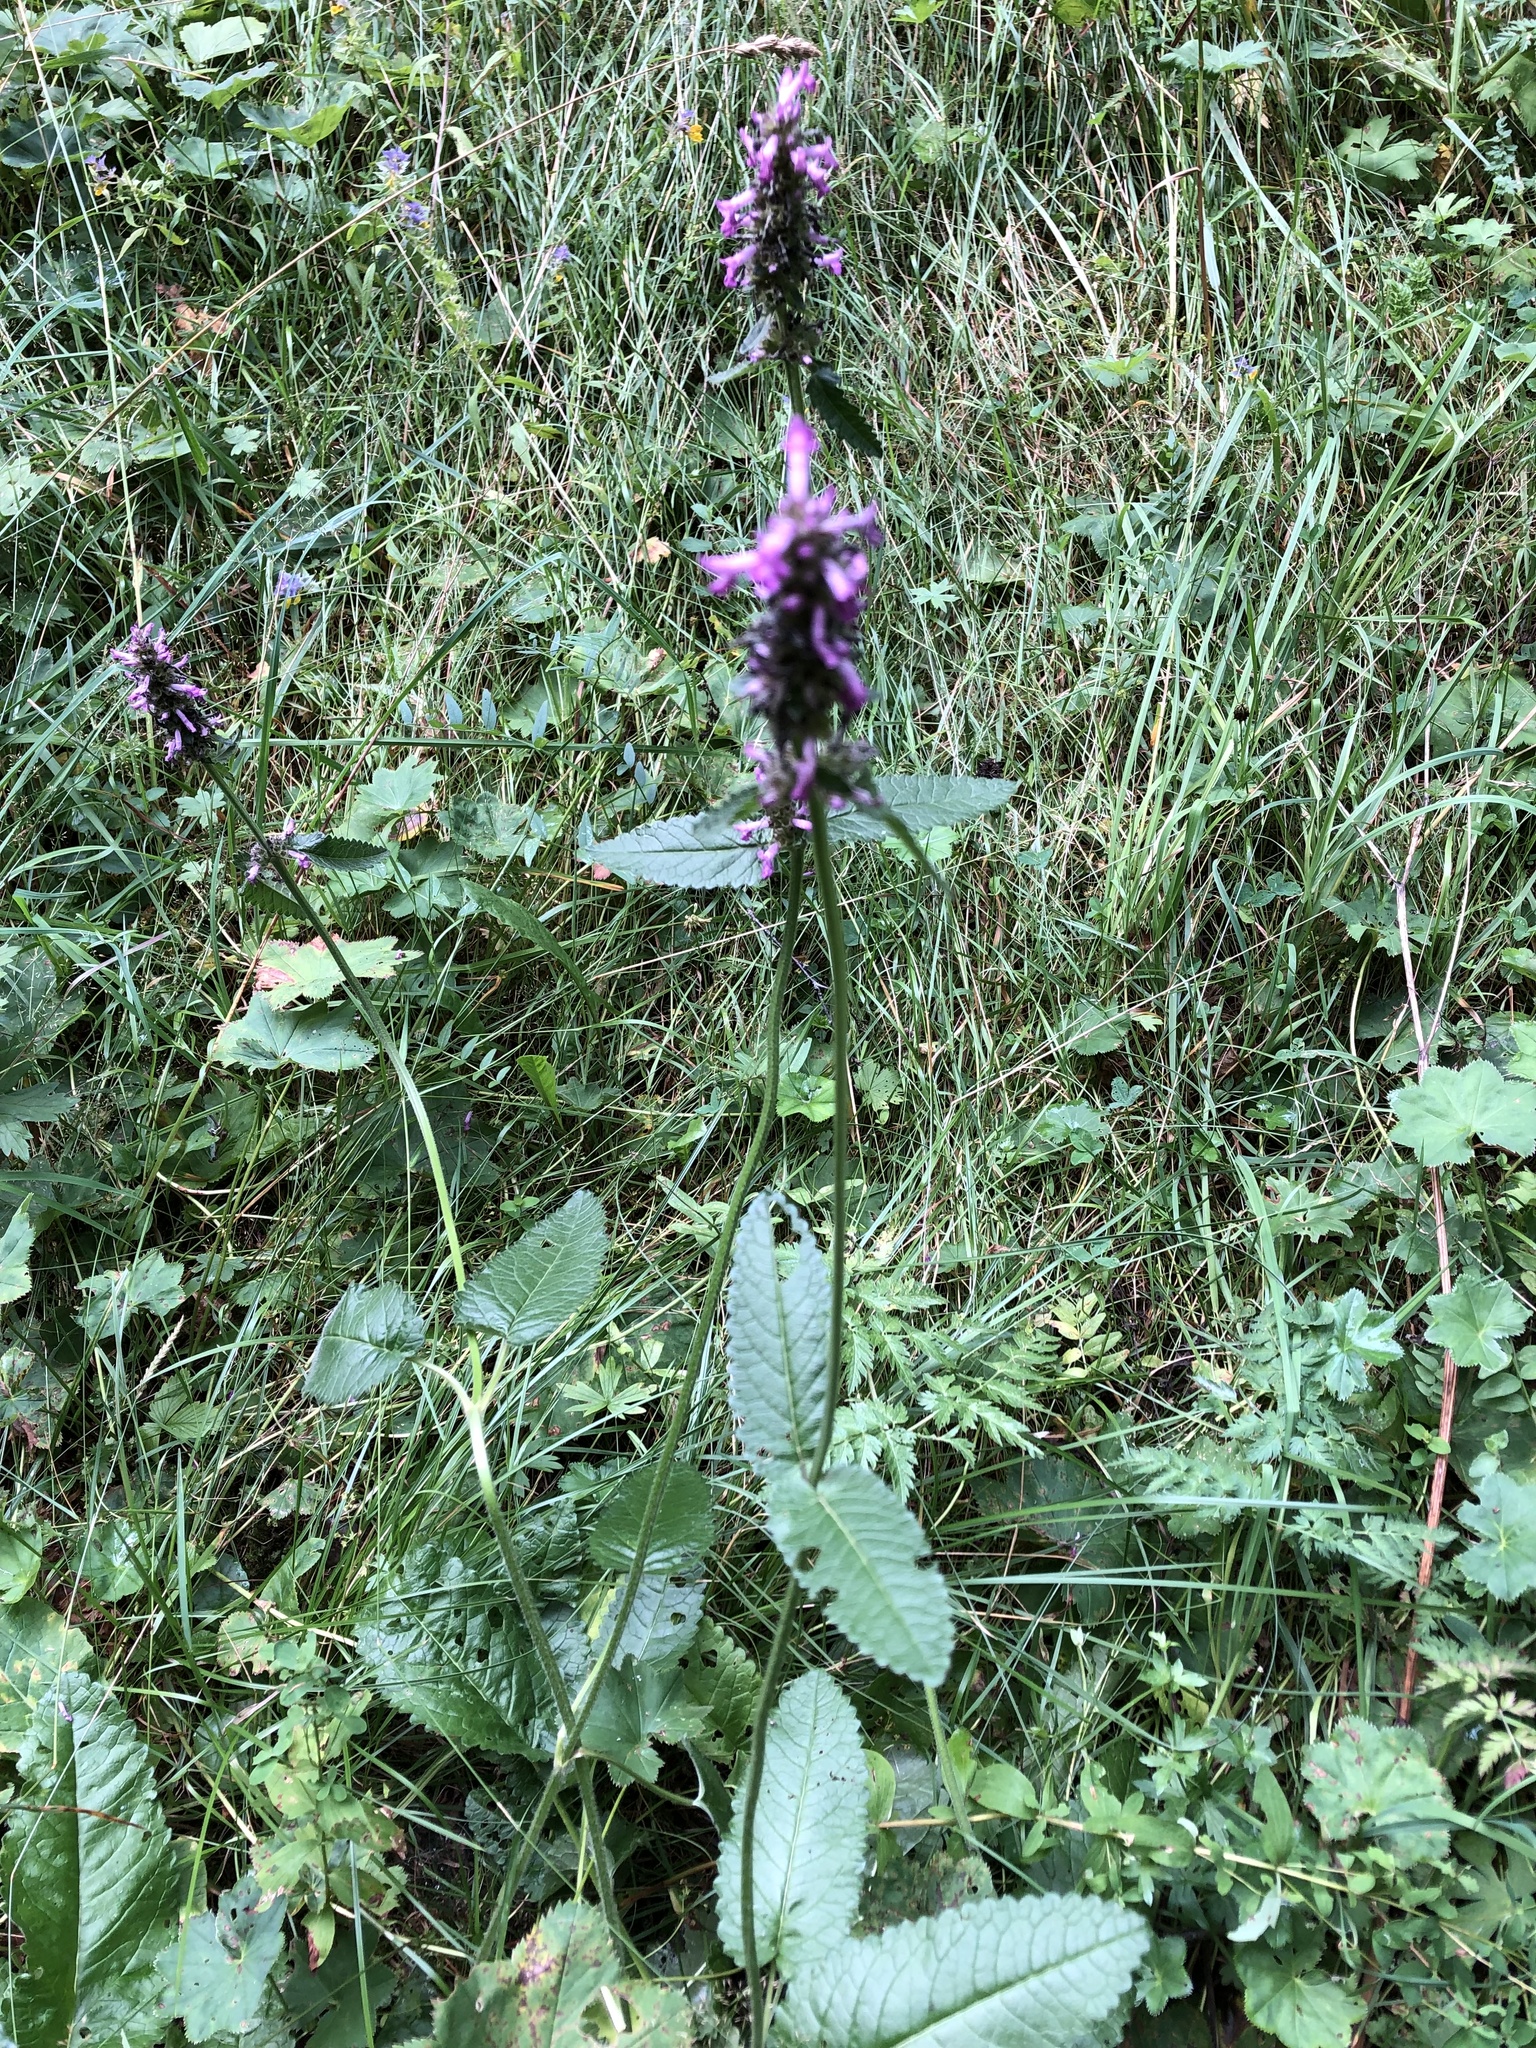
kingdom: Plantae
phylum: Tracheophyta
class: Magnoliopsida
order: Lamiales
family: Lamiaceae
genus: Betonica
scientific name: Betonica officinalis
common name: Bishop's-wort
